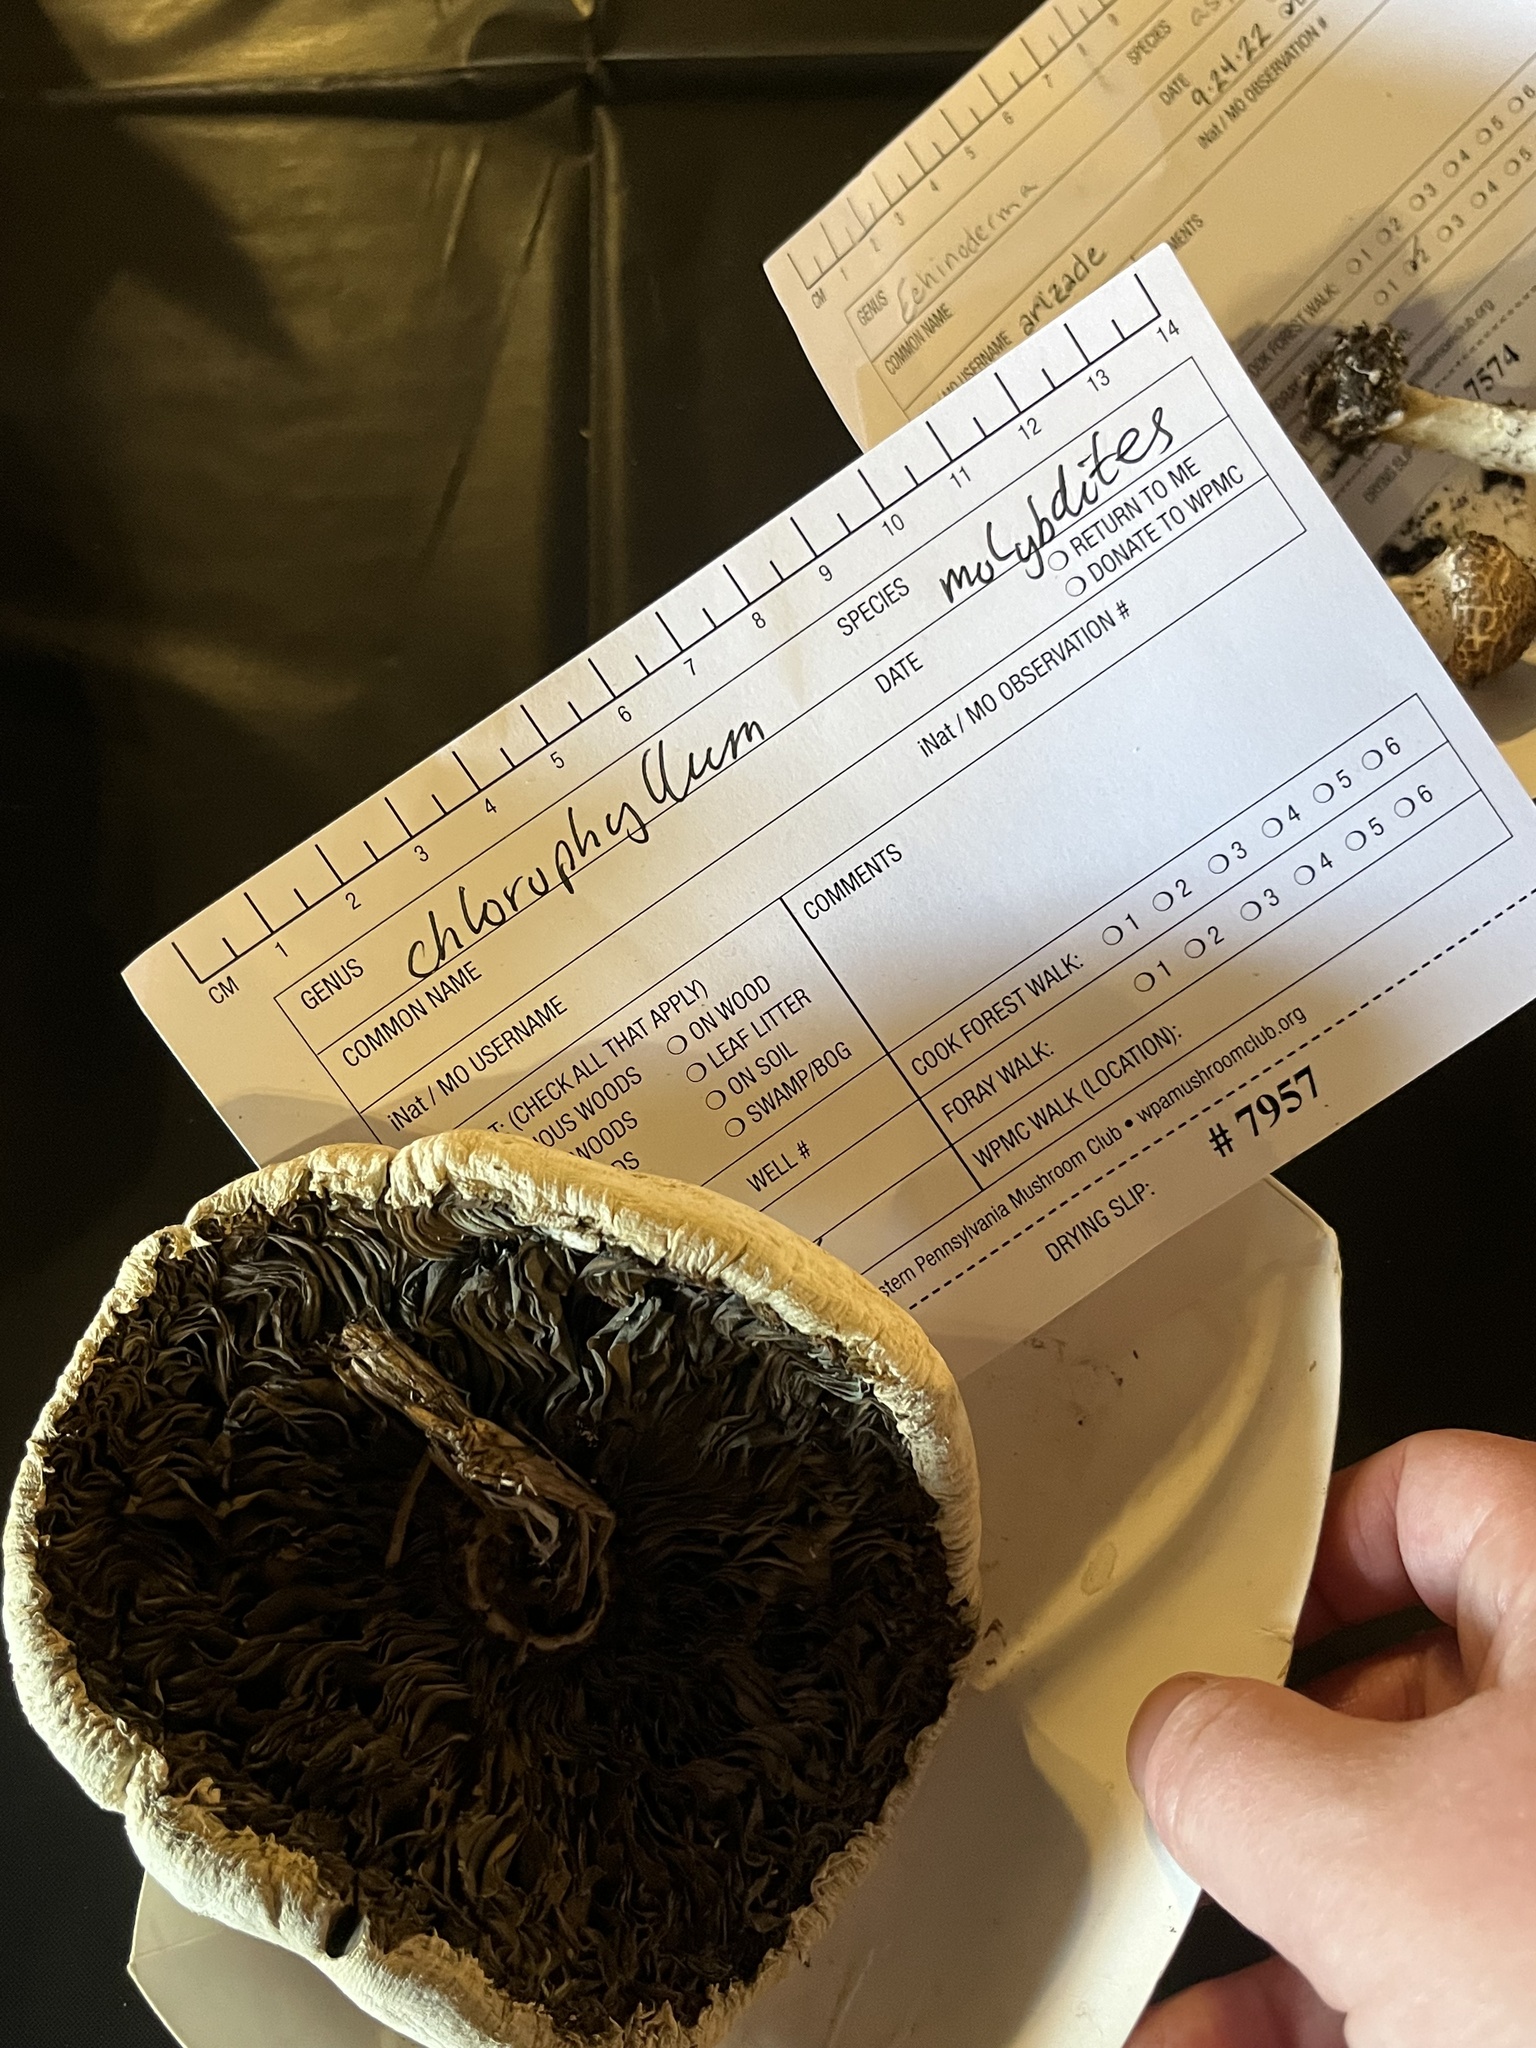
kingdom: Fungi
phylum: Basidiomycota
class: Agaricomycetes
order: Agaricales
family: Agaricaceae
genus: Chlorophyllum
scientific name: Chlorophyllum molybdites
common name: False parasol
